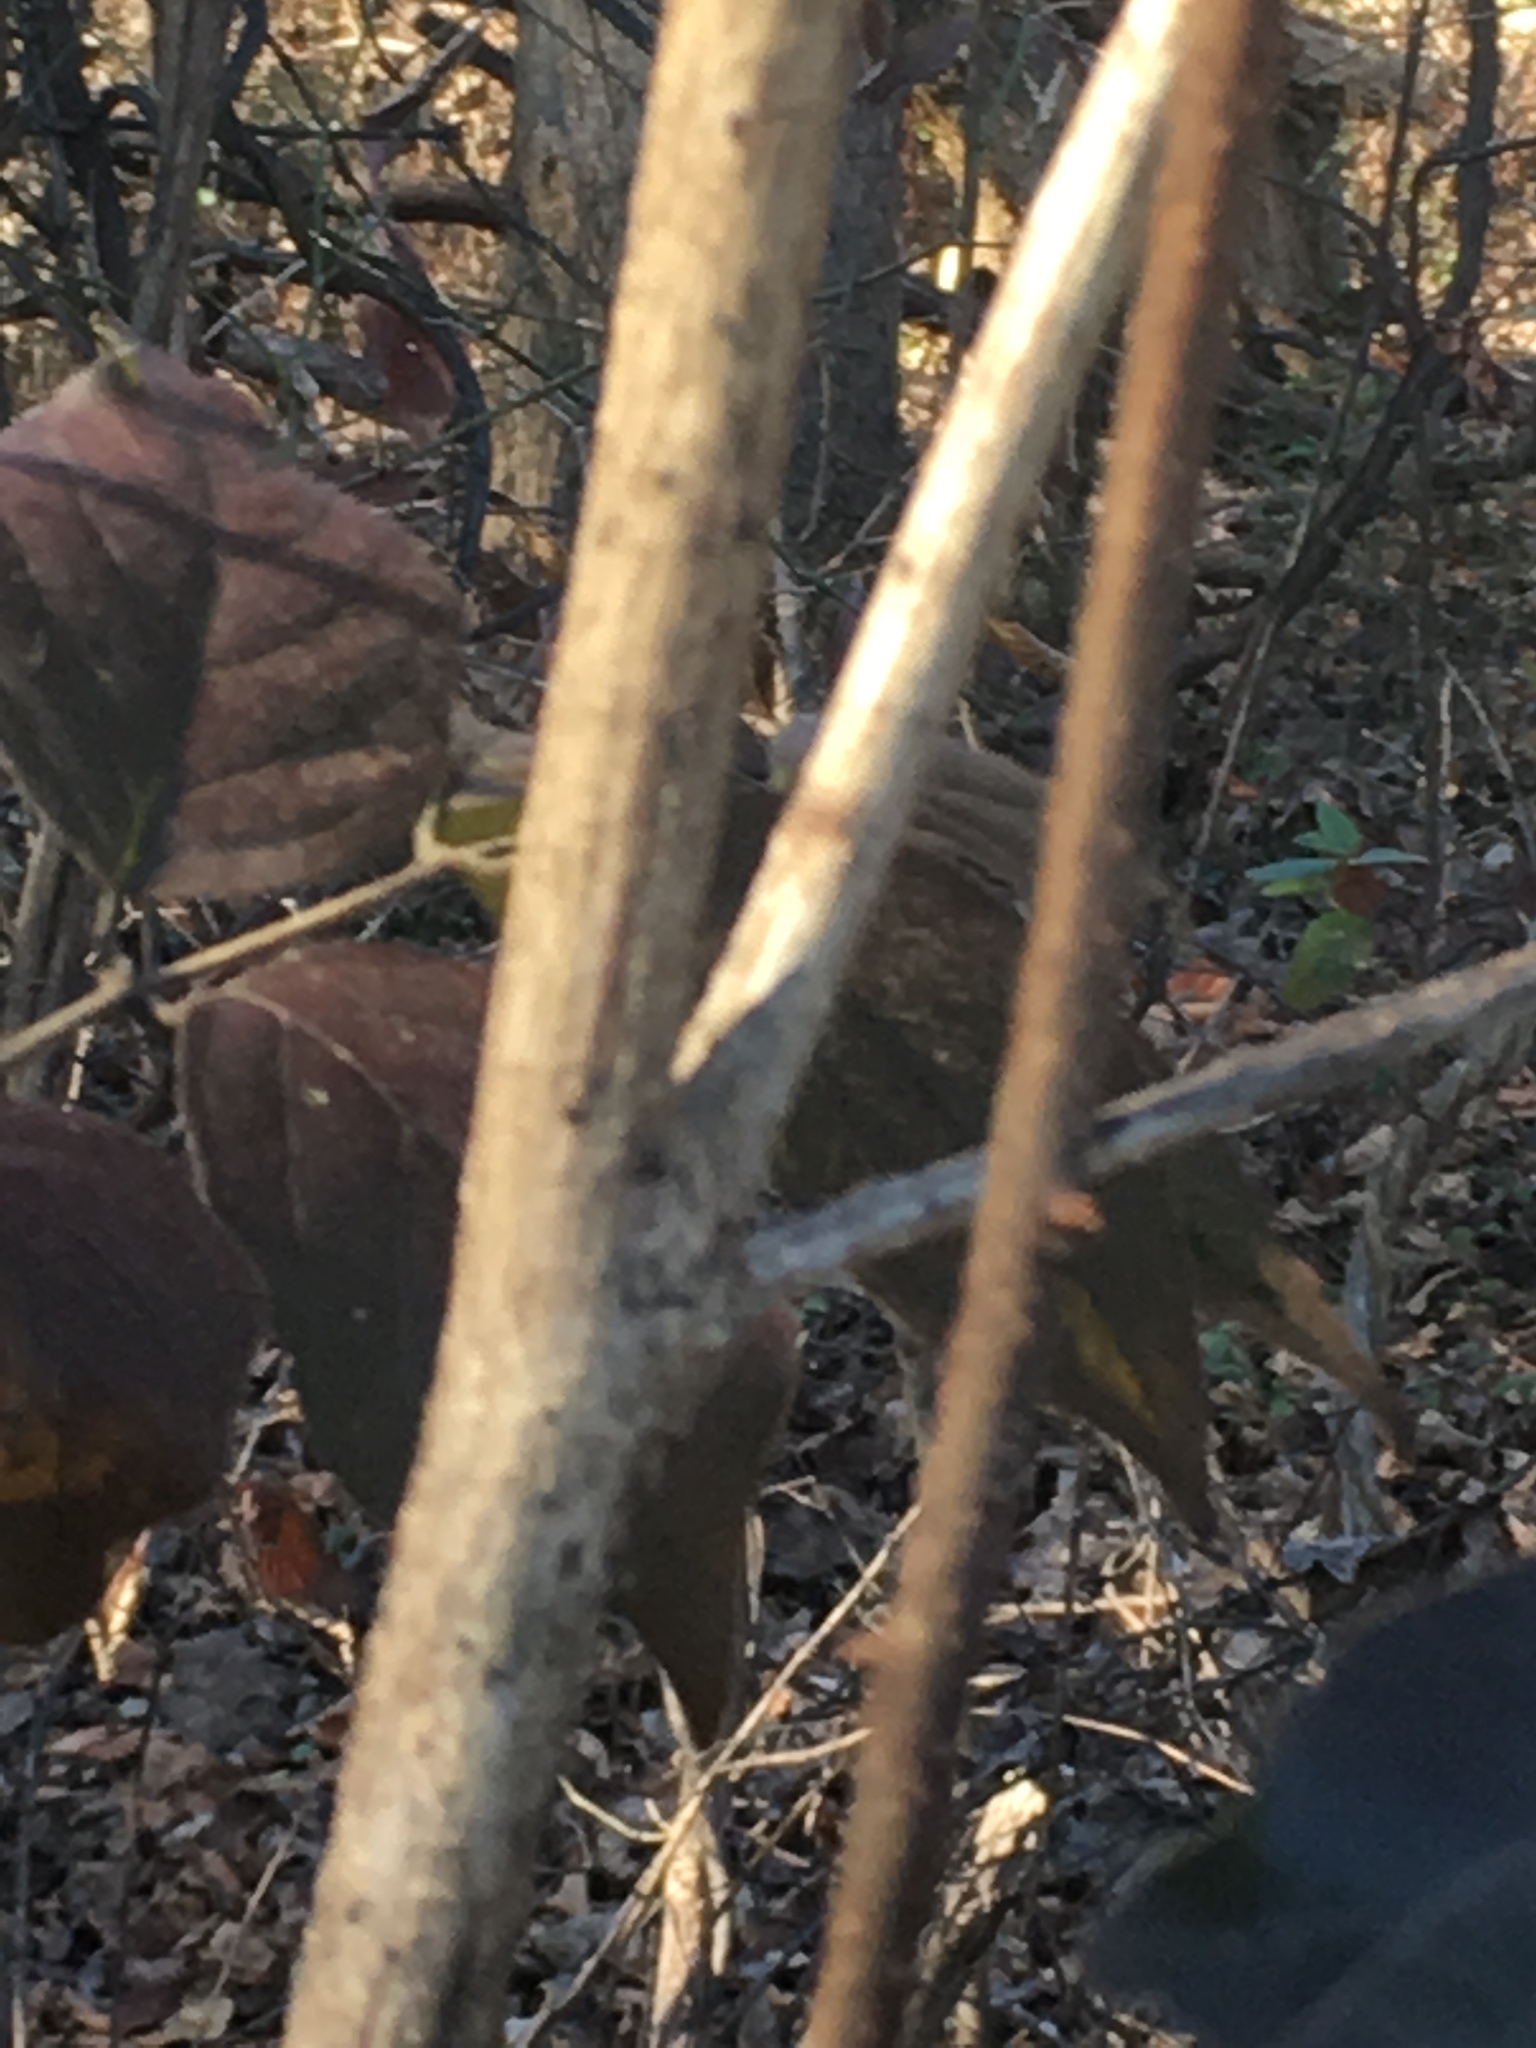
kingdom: Plantae
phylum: Tracheophyta
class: Magnoliopsida
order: Dipsacales
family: Caprifoliaceae
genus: Lonicera
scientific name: Lonicera maackii
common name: Amur honeysuckle
